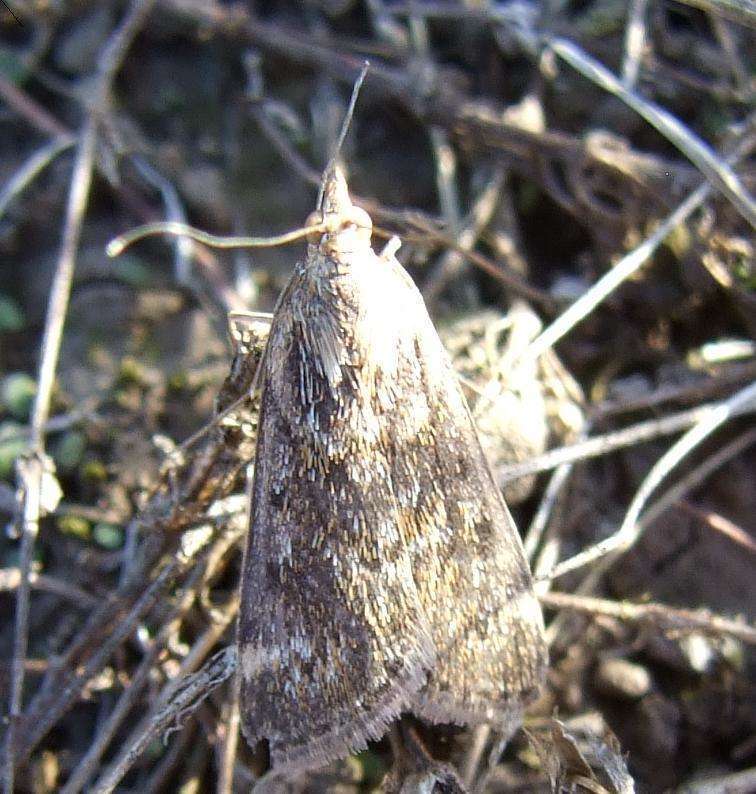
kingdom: Animalia
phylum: Arthropoda
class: Insecta
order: Lepidoptera
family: Crambidae
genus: Achyra
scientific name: Achyra affinitalis
